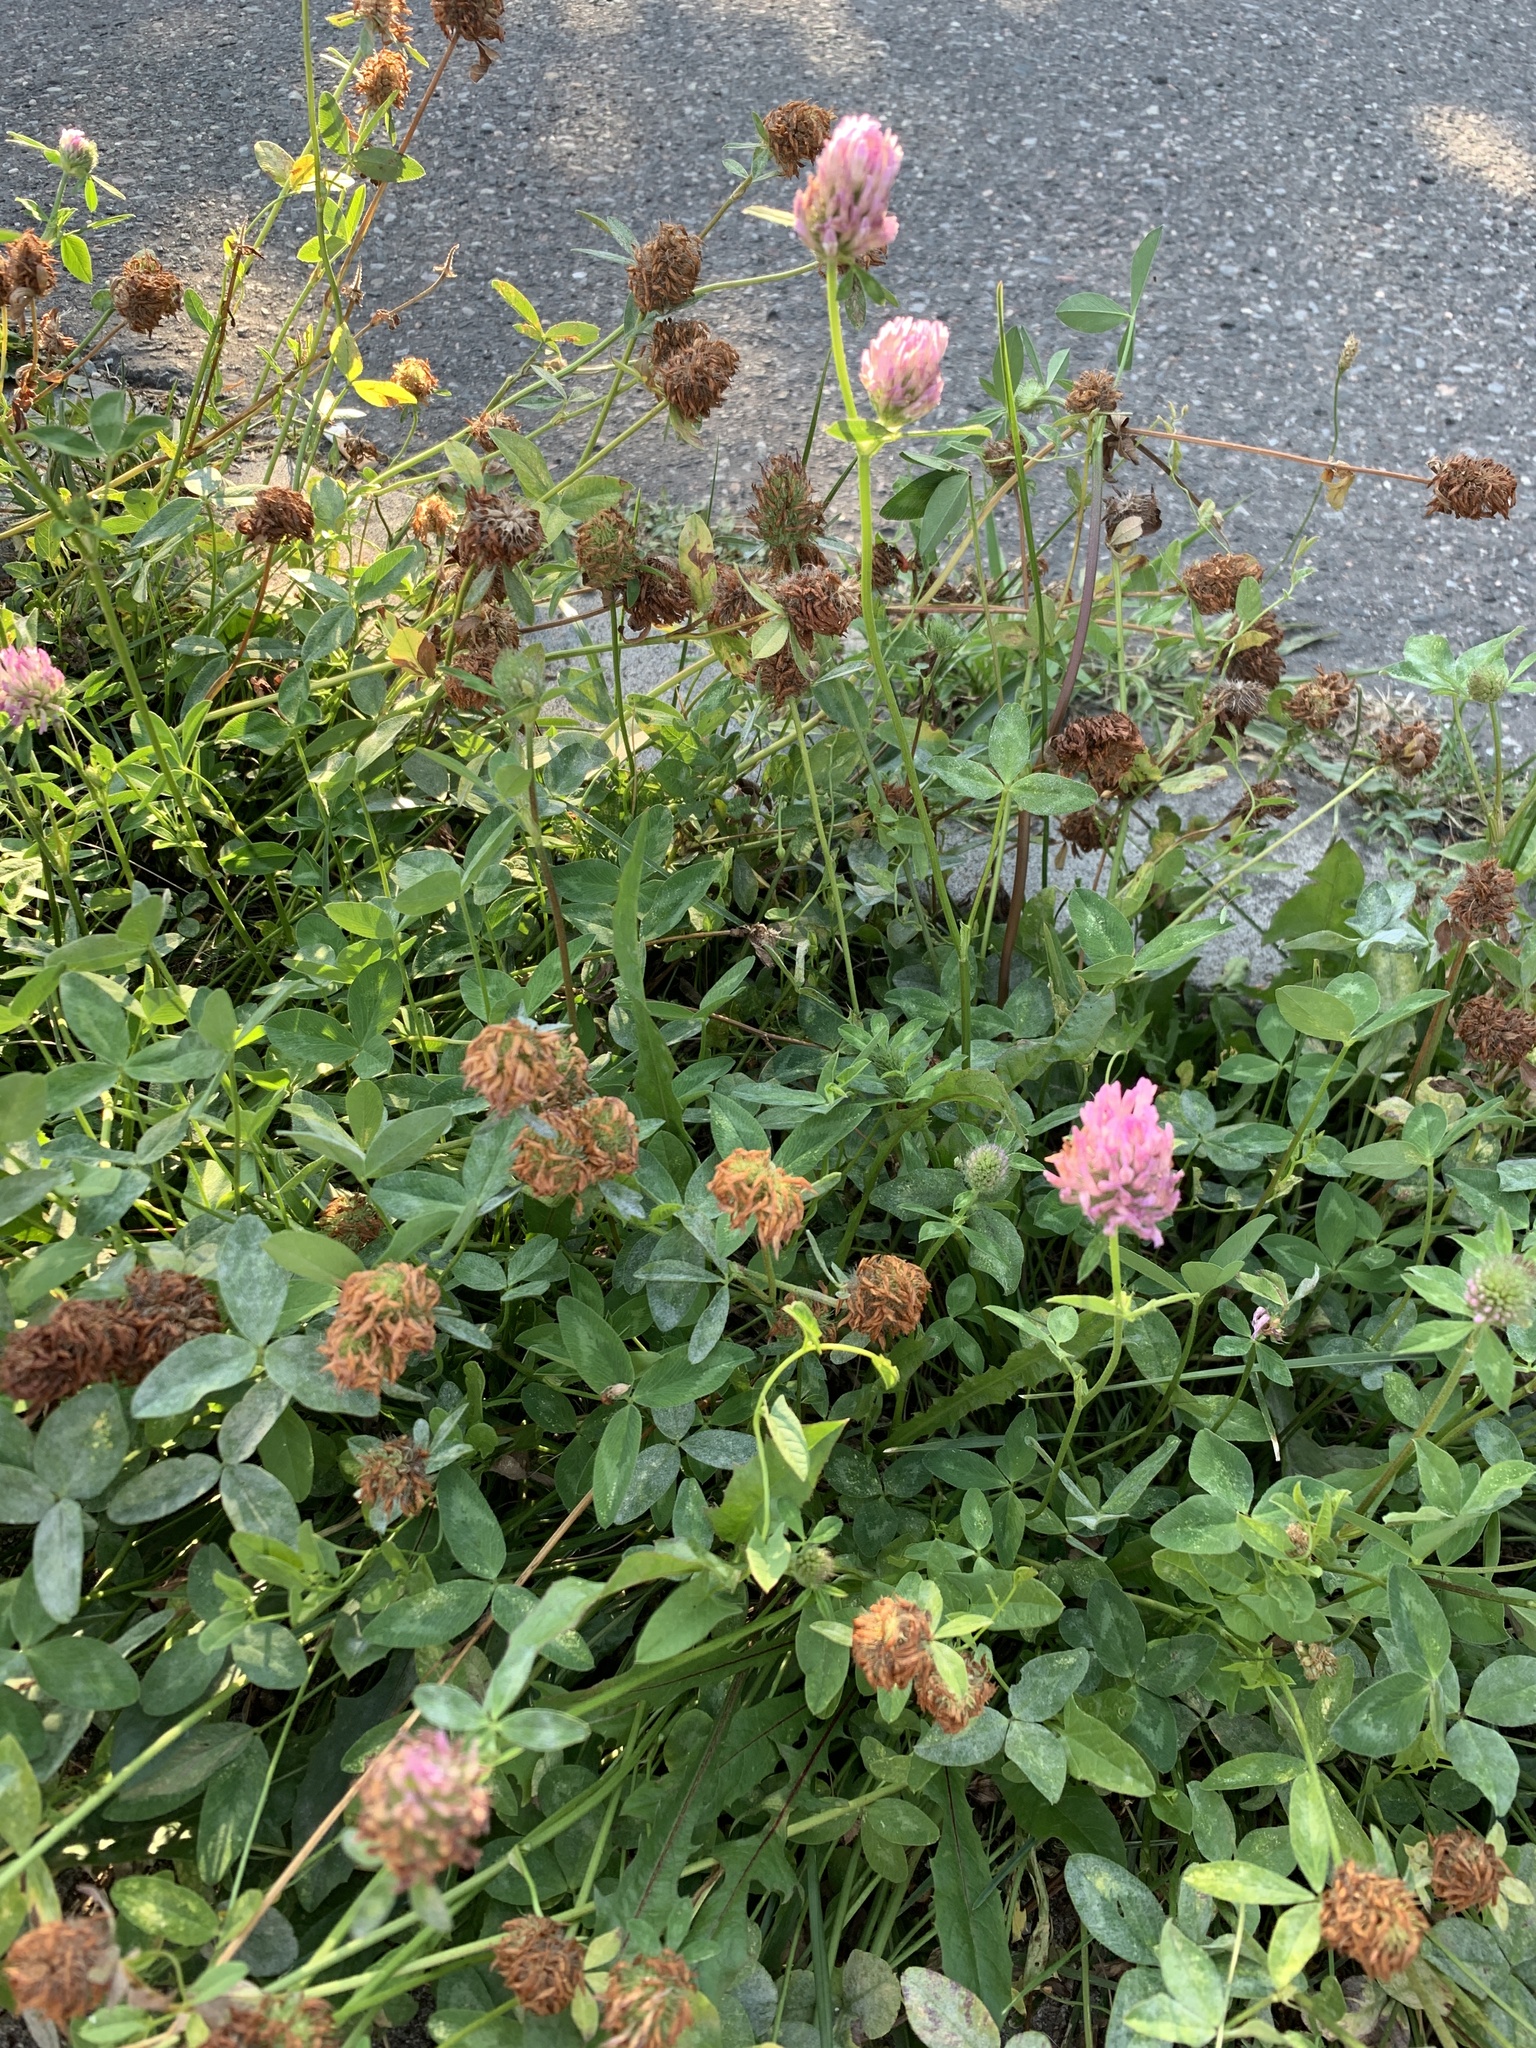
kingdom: Plantae
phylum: Tracheophyta
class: Magnoliopsida
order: Fabales
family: Fabaceae
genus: Trifolium
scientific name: Trifolium pratense
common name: Red clover
